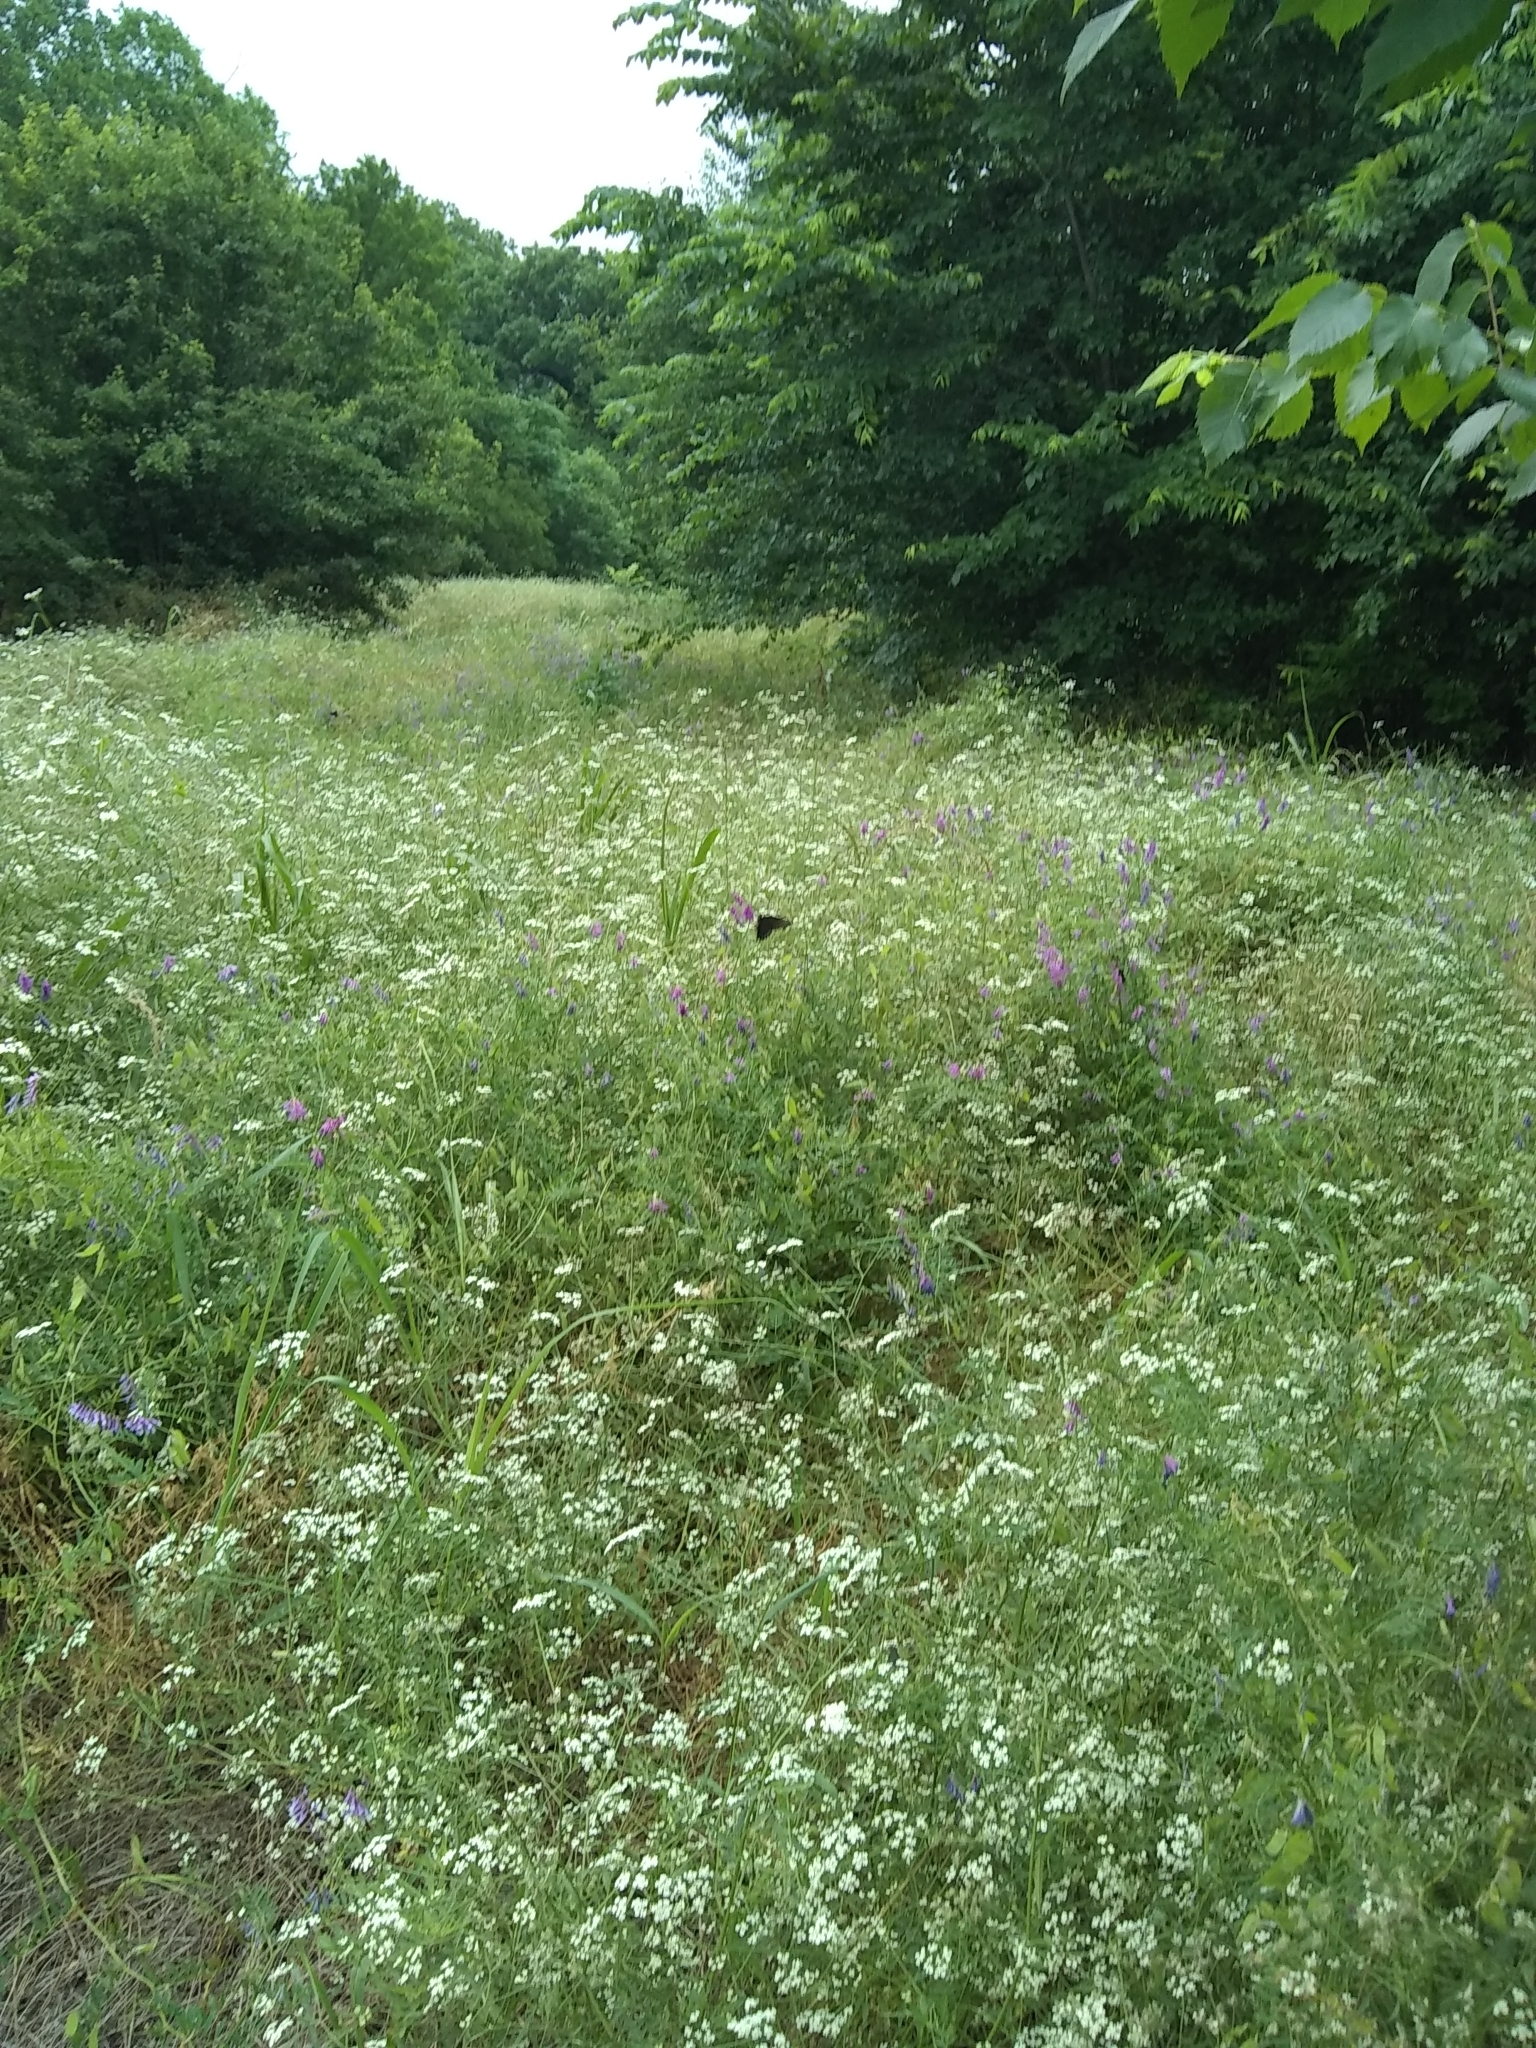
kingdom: Animalia
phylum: Arthropoda
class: Insecta
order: Lepidoptera
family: Papilionidae
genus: Battus
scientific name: Battus philenor
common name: Pipevine swallowtail
